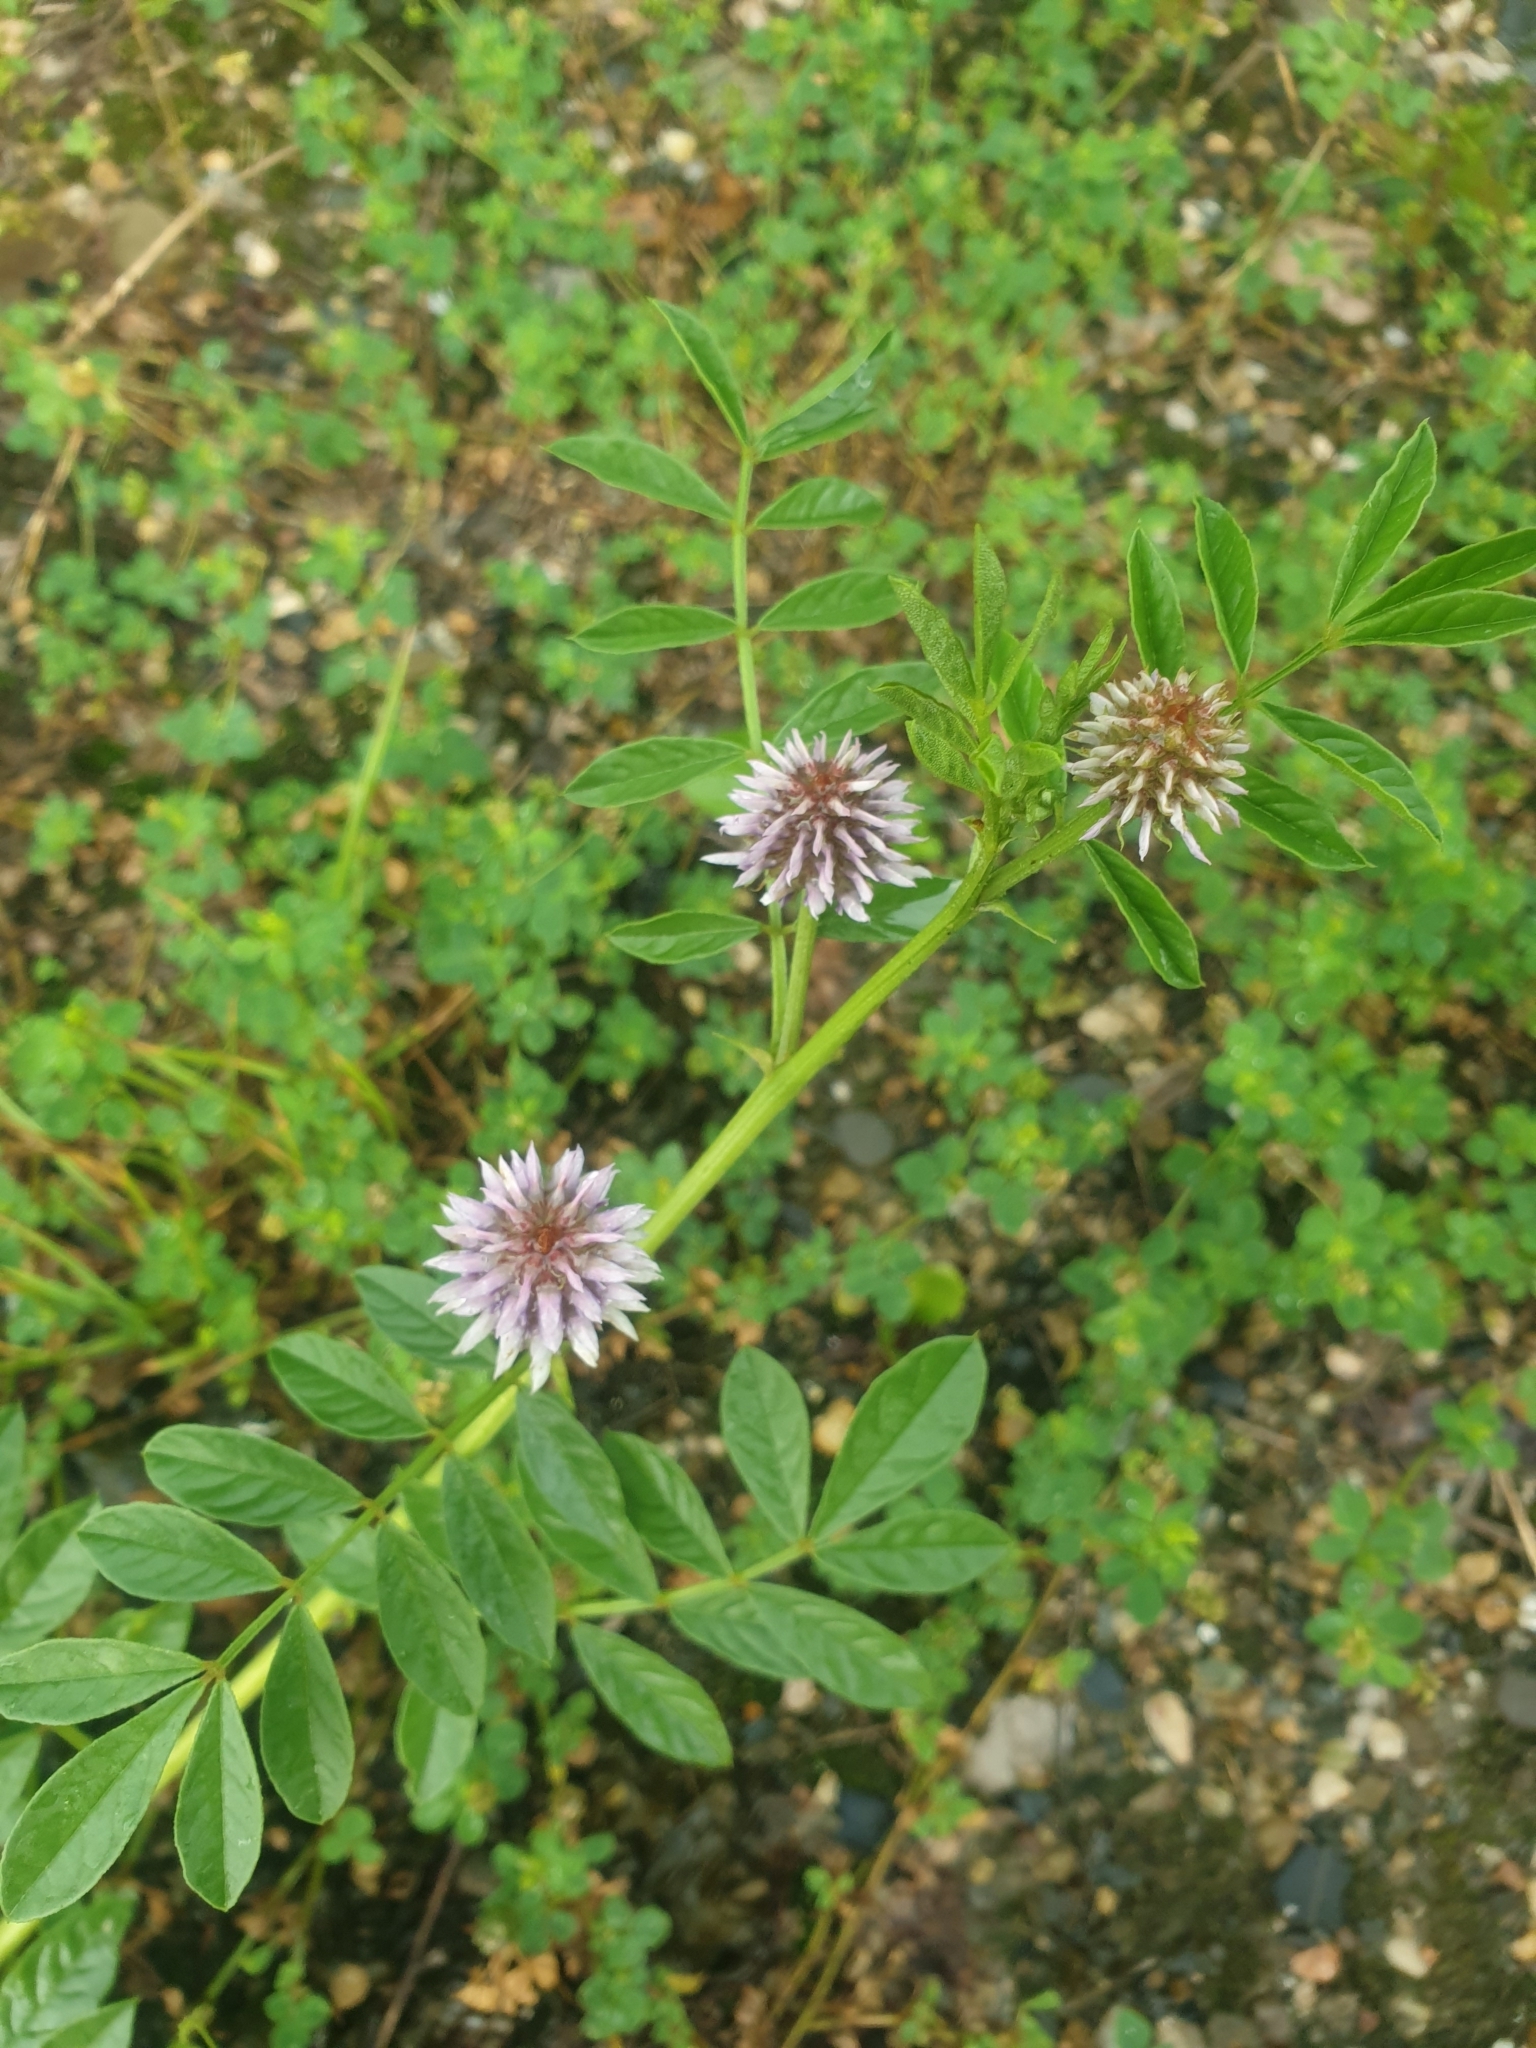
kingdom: Plantae
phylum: Tracheophyta
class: Magnoliopsida
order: Fabales
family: Fabaceae
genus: Glycyrrhiza
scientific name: Glycyrrhiza echinata
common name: German liquorice
